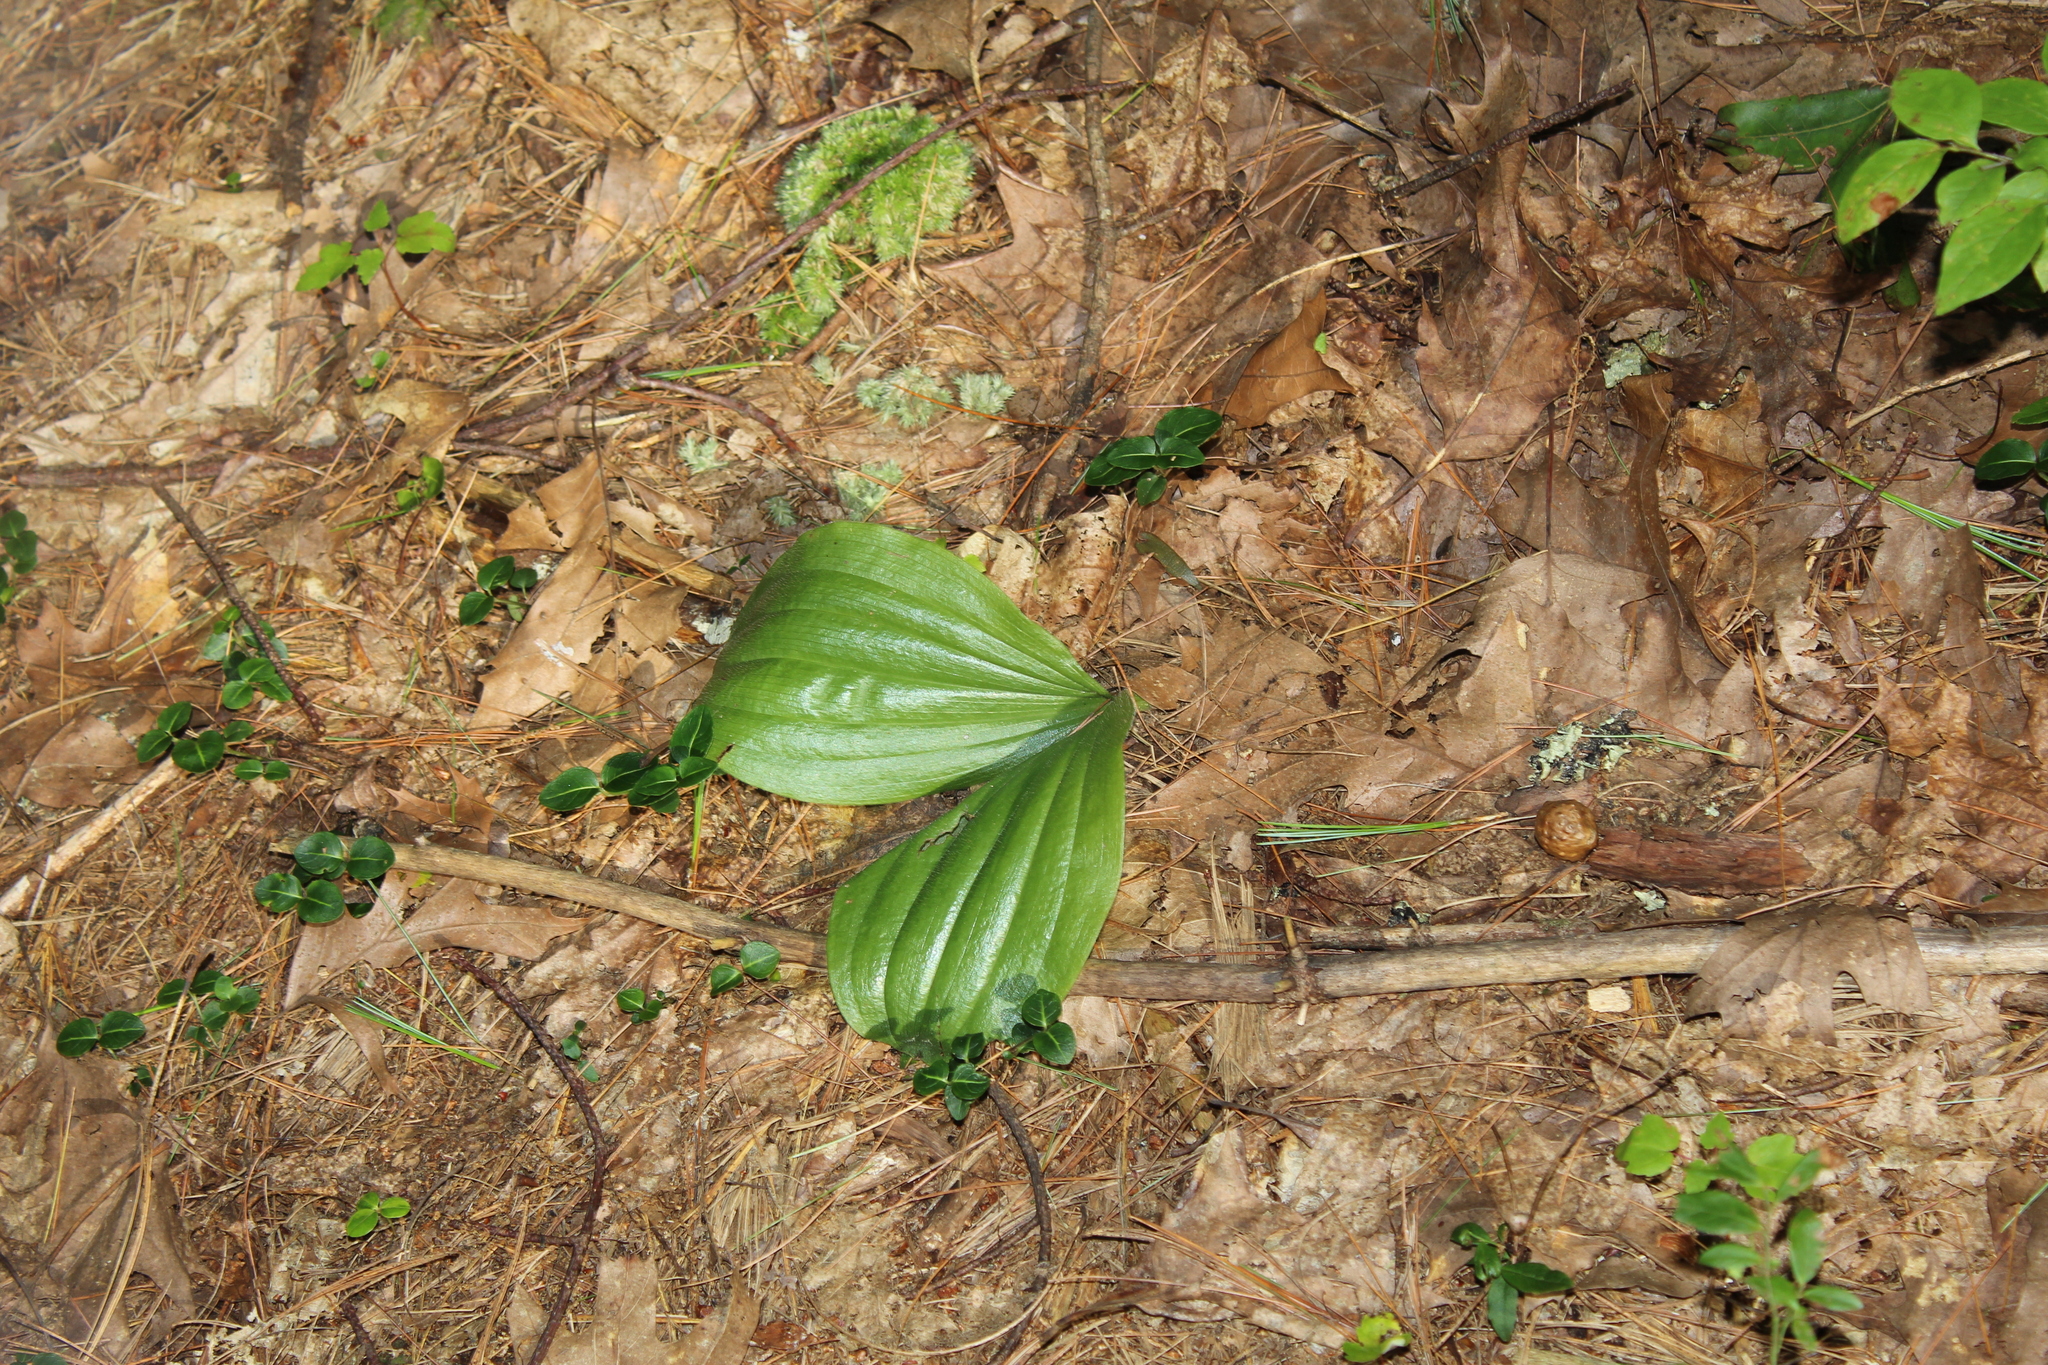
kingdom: Plantae
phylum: Tracheophyta
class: Liliopsida
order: Asparagales
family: Orchidaceae
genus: Cypripedium
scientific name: Cypripedium acaule
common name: Pink lady's-slipper
